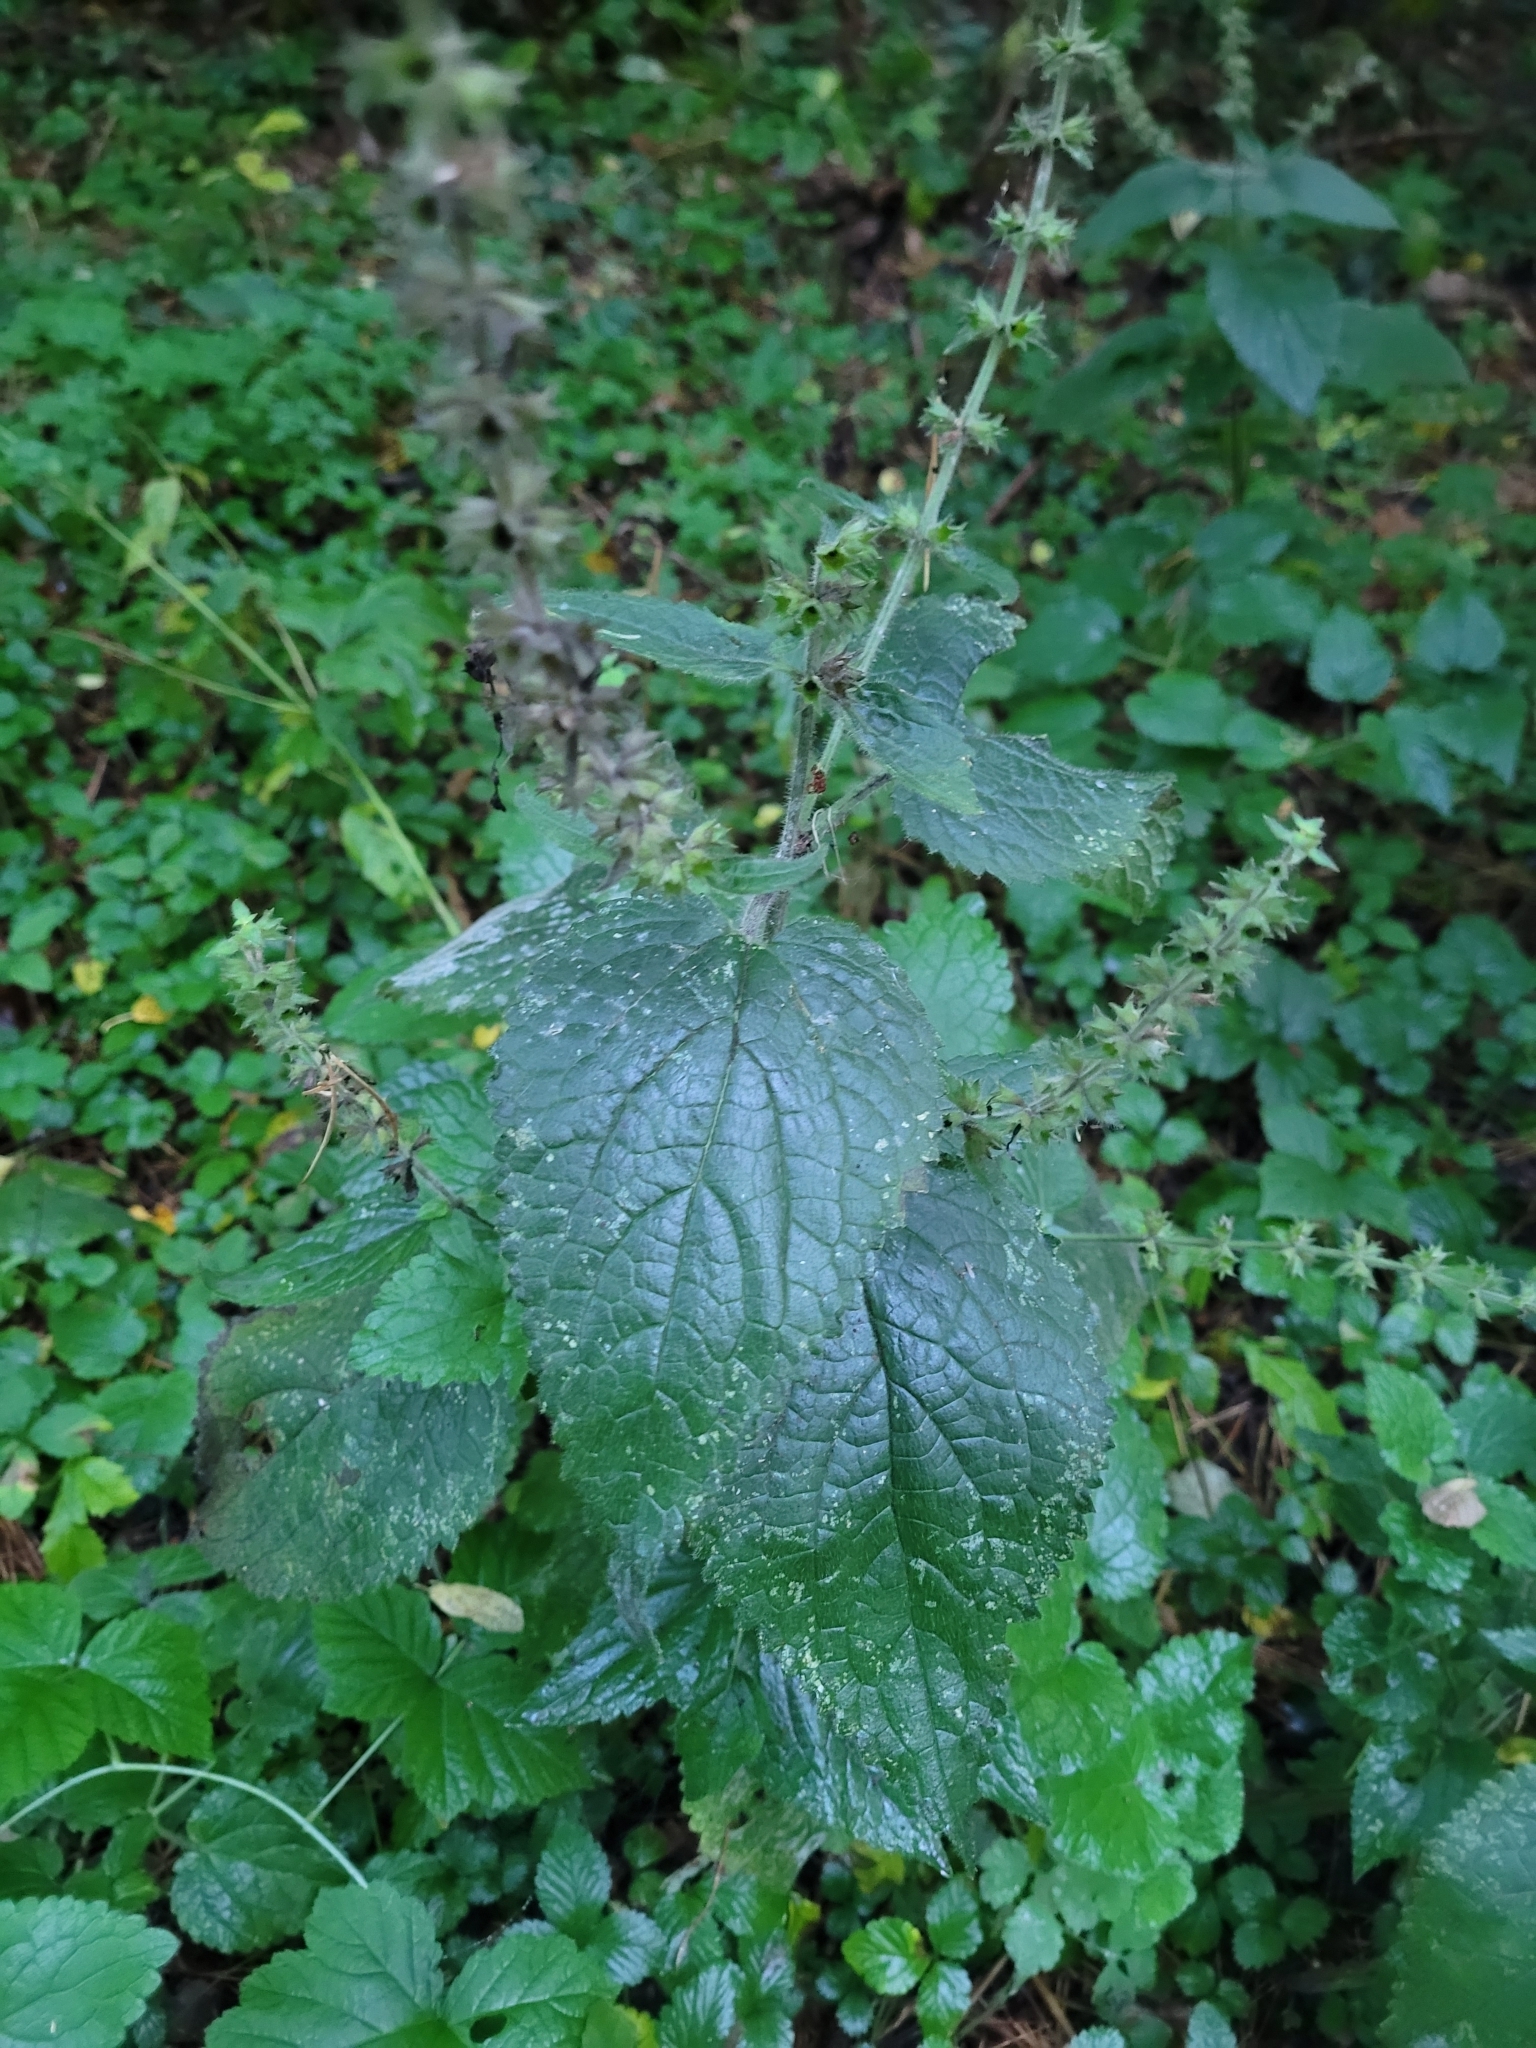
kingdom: Plantae
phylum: Tracheophyta
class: Magnoliopsida
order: Lamiales
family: Lamiaceae
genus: Stachys
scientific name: Stachys sylvatica
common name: Hedge woundwort
